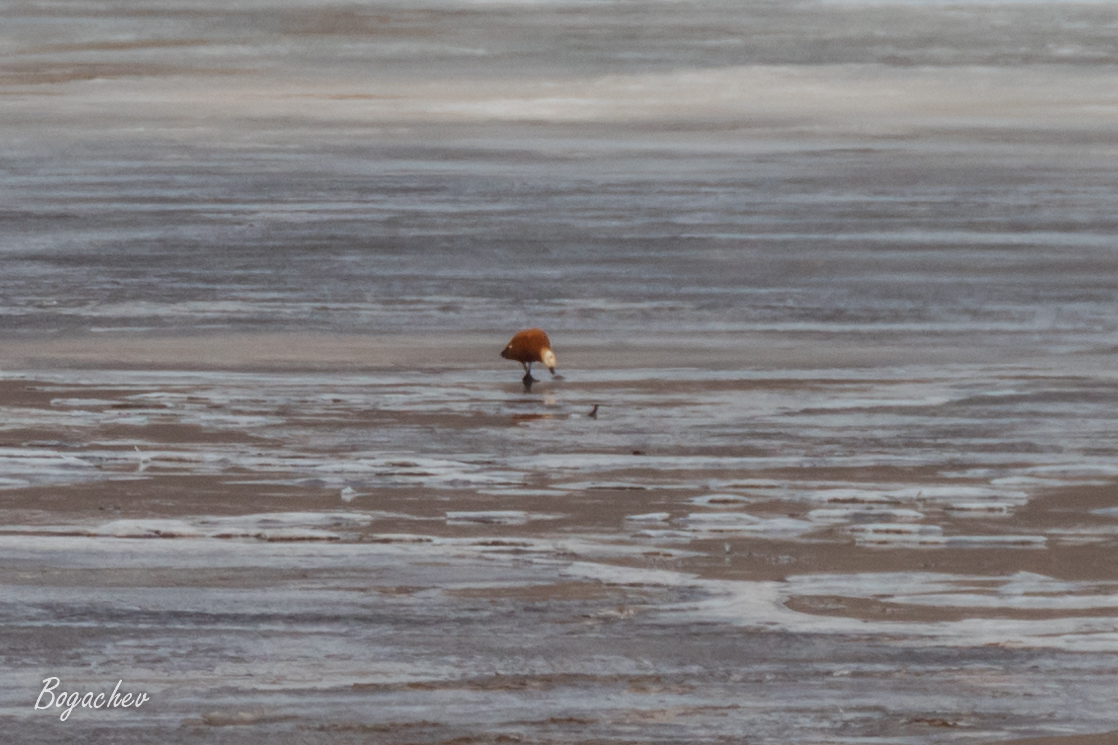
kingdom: Animalia
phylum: Chordata
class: Aves
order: Anseriformes
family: Anatidae
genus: Tadorna
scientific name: Tadorna ferruginea
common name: Ruddy shelduck
